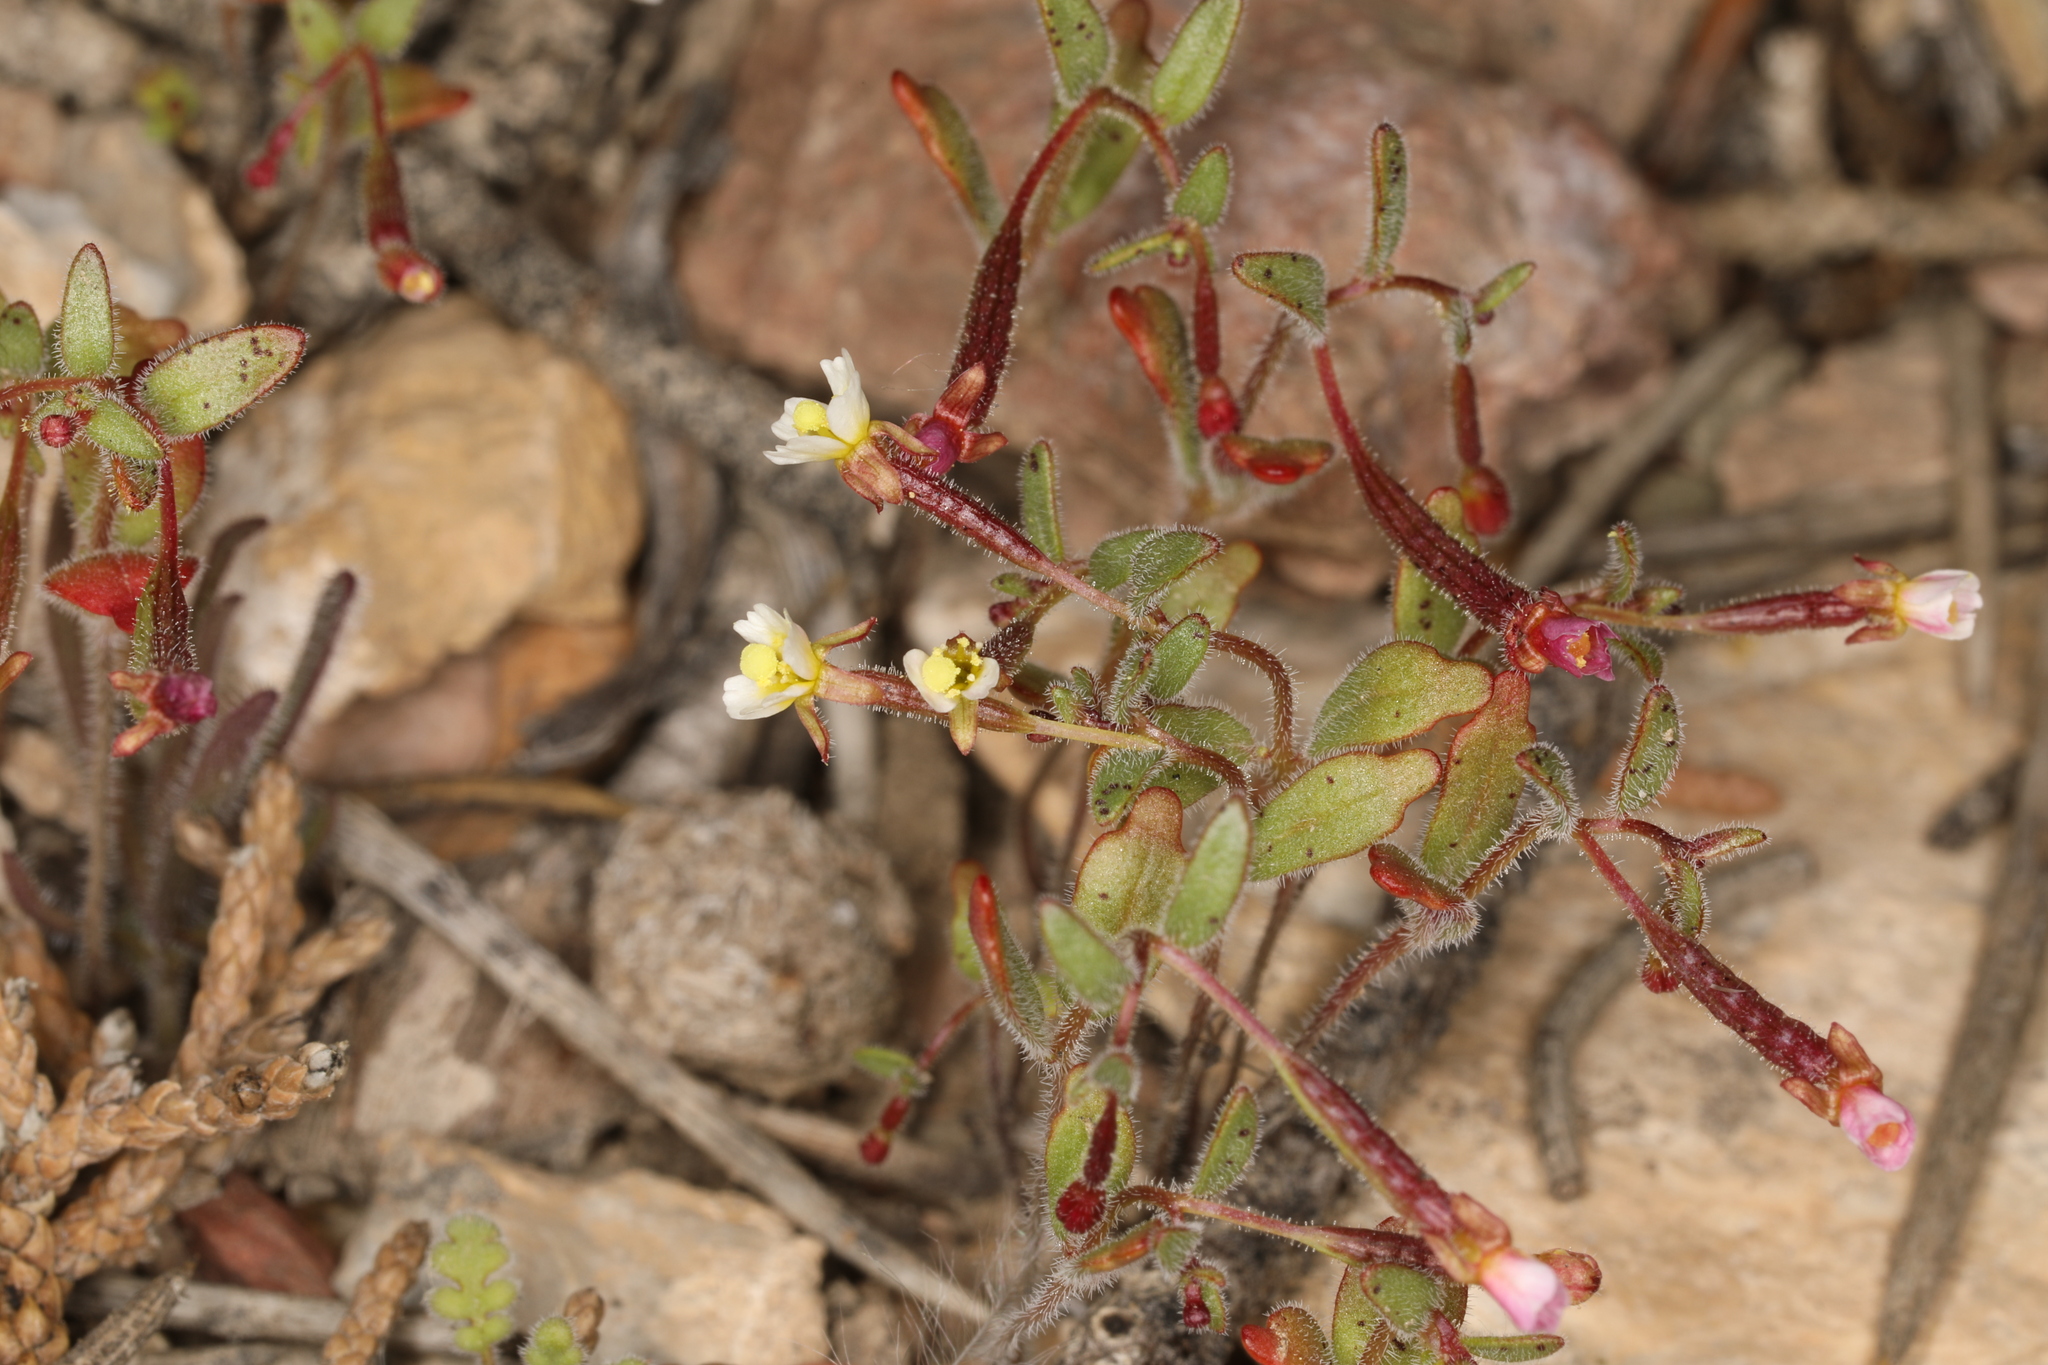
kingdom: Plantae
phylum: Tracheophyta
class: Magnoliopsida
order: Myrtales
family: Onagraceae
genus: Chylismiella
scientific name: Chylismiella pterosperma
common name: Wingfruit suncup
